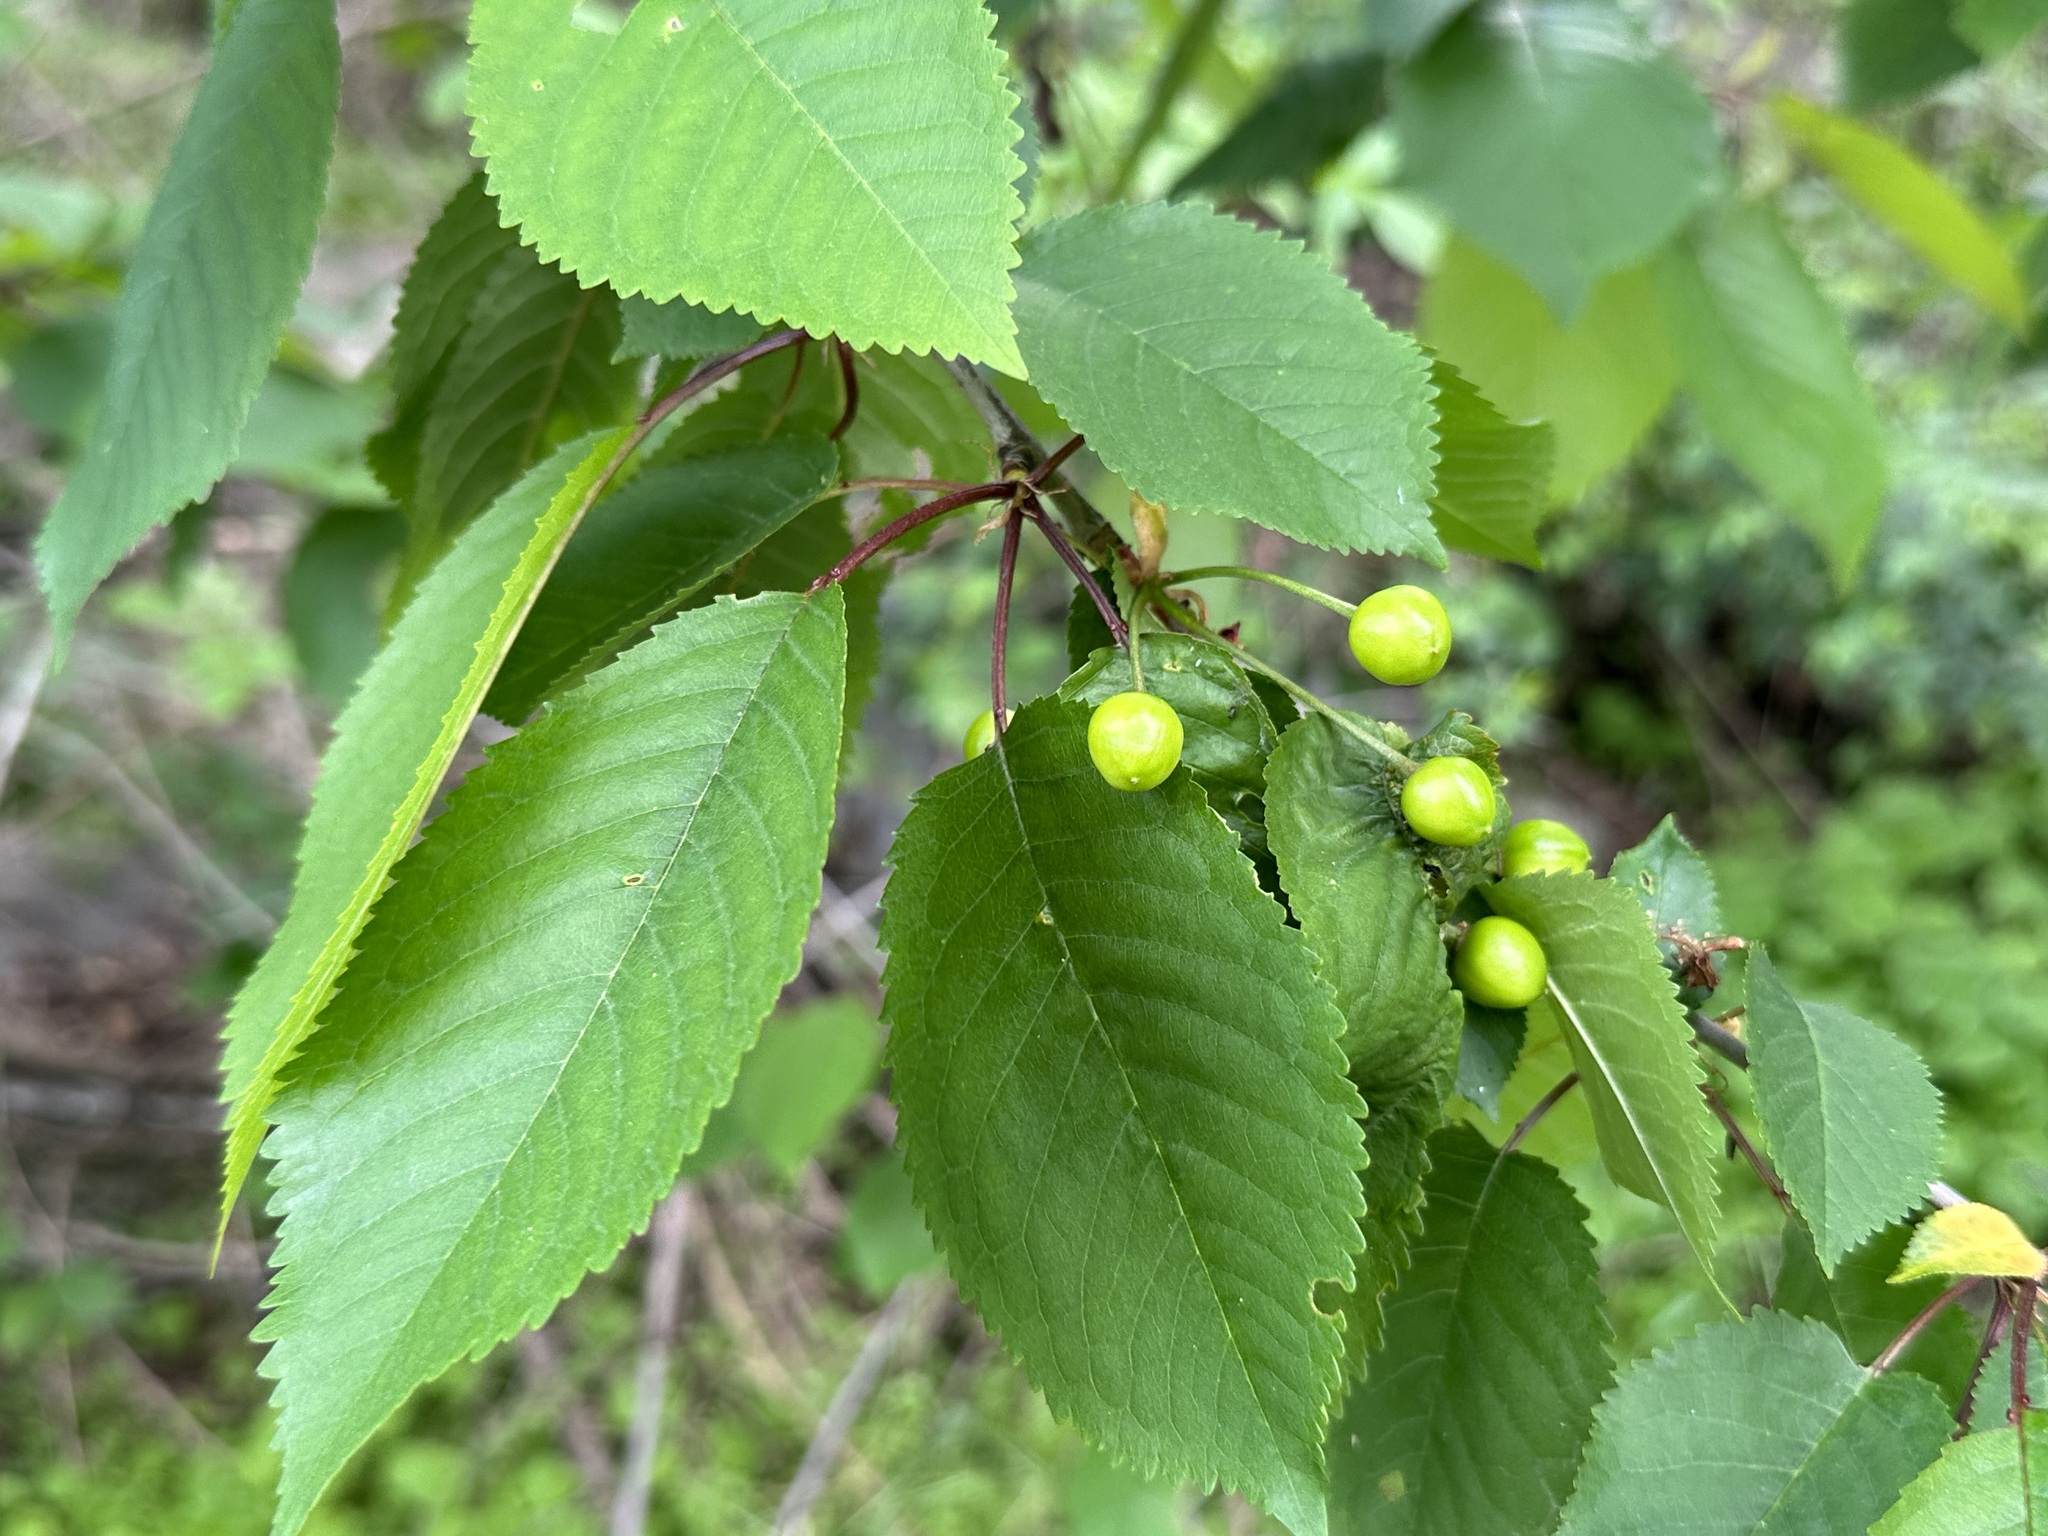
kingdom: Plantae
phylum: Tracheophyta
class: Magnoliopsida
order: Rosales
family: Rosaceae
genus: Prunus
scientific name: Prunus avium
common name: Sweet cherry
